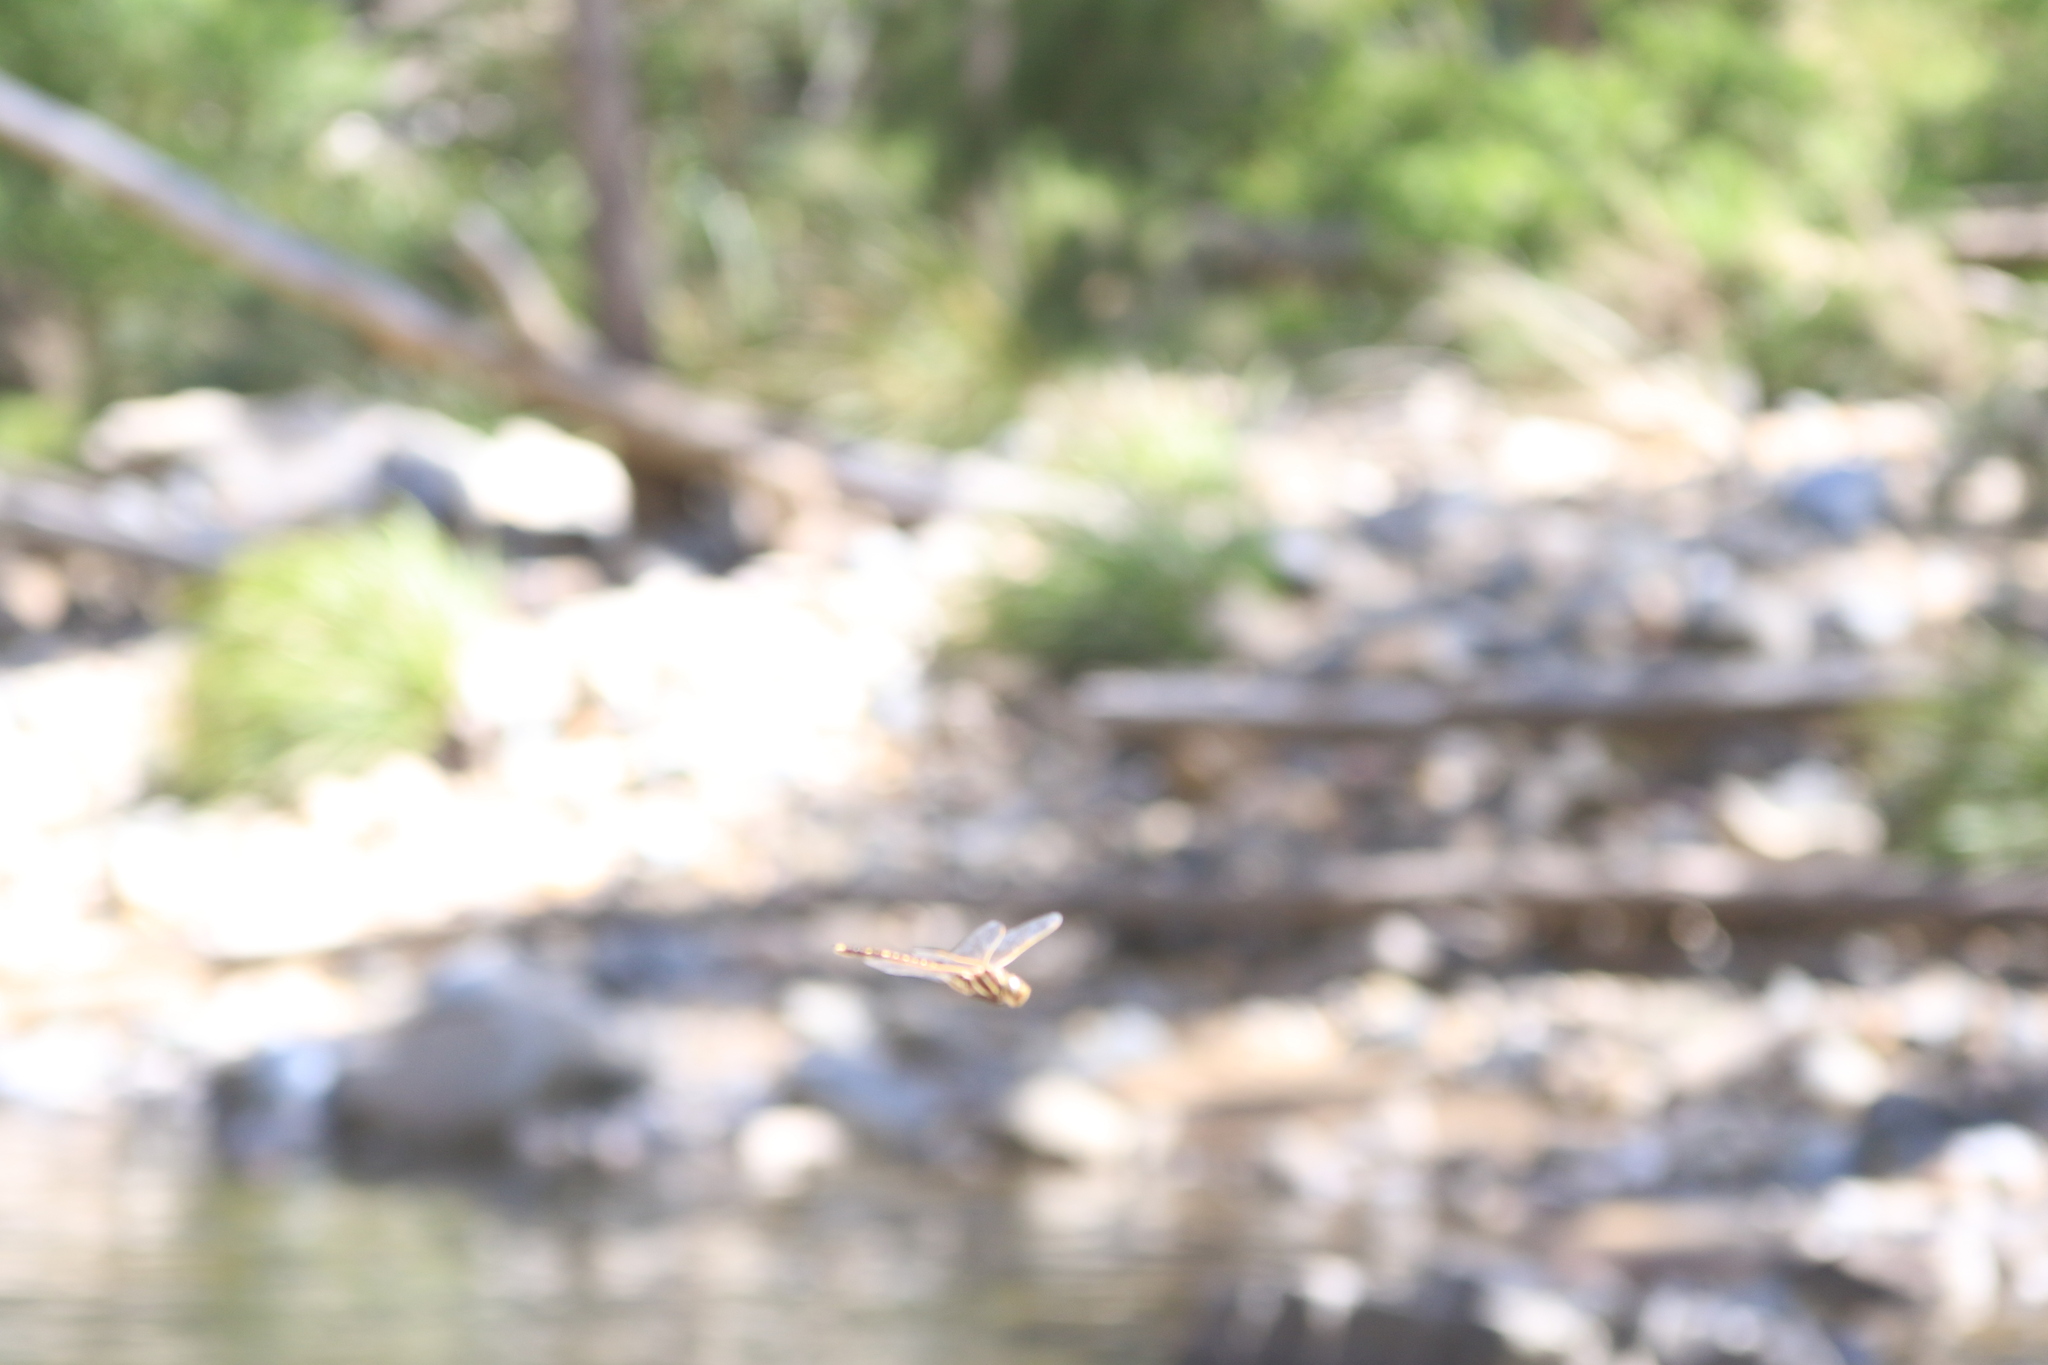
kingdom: Animalia
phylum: Arthropoda
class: Insecta
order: Odonata
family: Aeshnidae
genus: Aeshna
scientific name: Aeshna brevistyla
